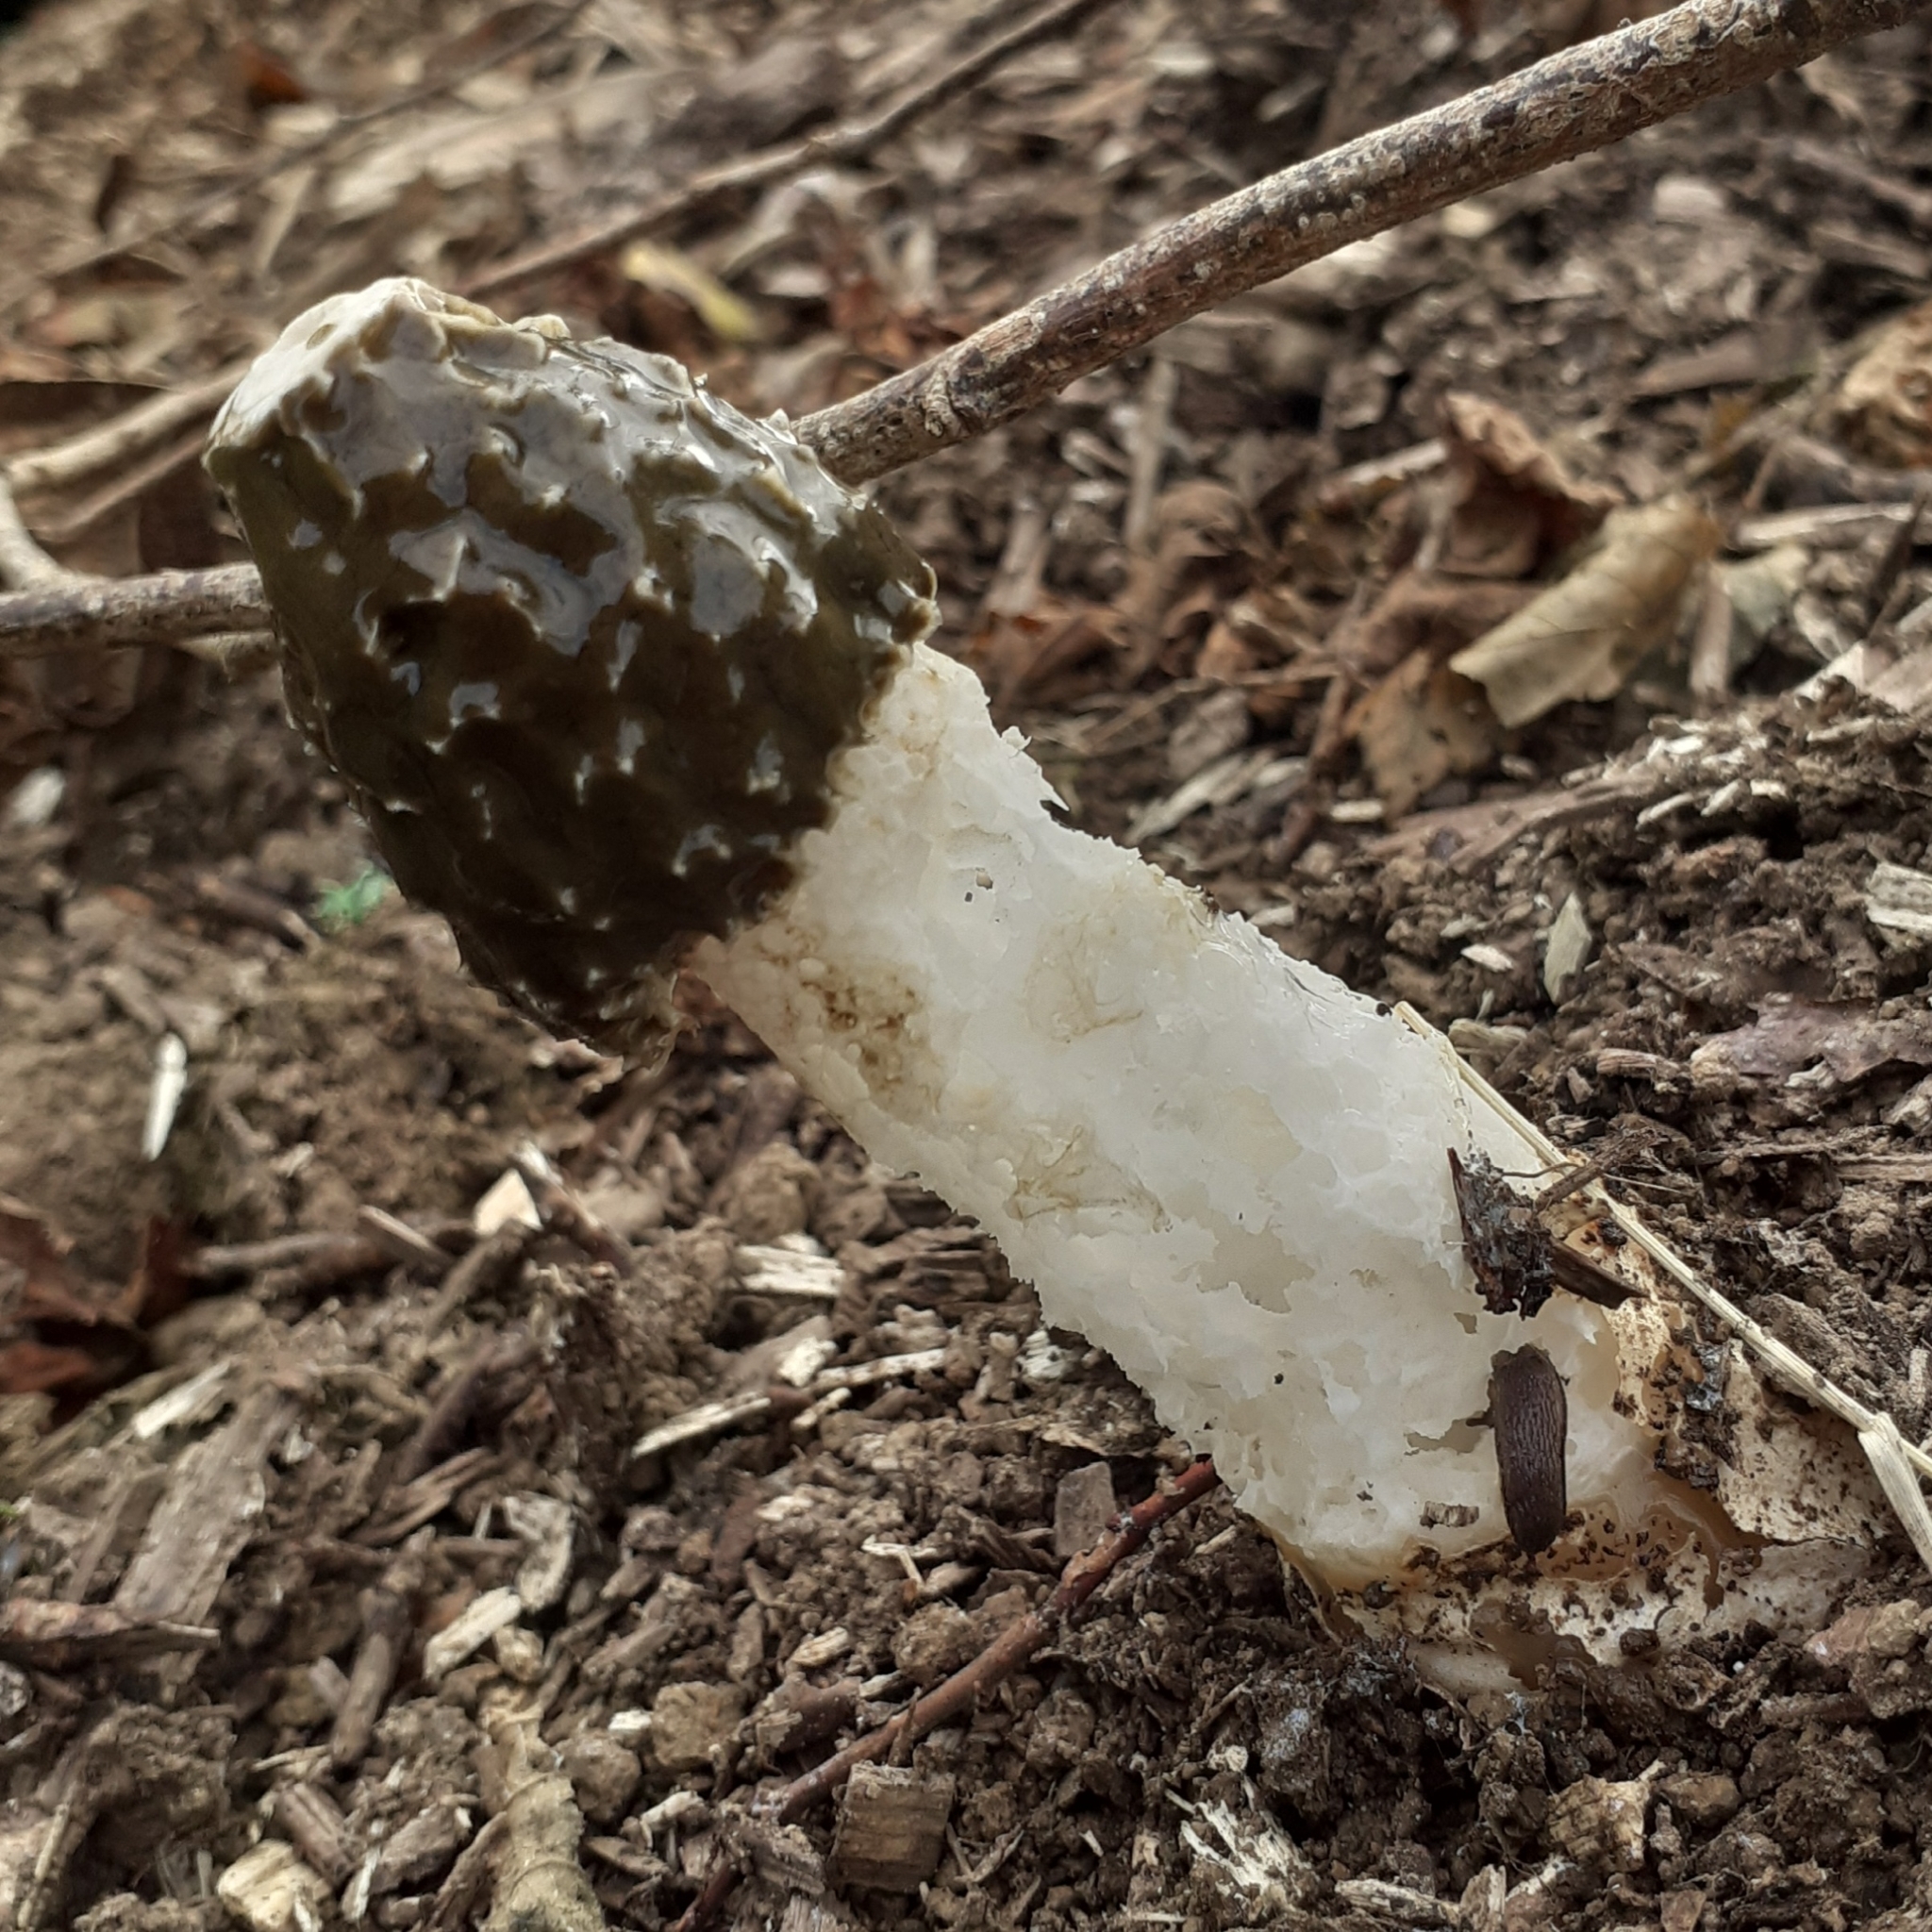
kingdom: Fungi
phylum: Basidiomycota
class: Agaricomycetes
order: Phallales
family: Phallaceae
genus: Phallus
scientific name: Phallus impudicus
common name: Common stinkhorn
